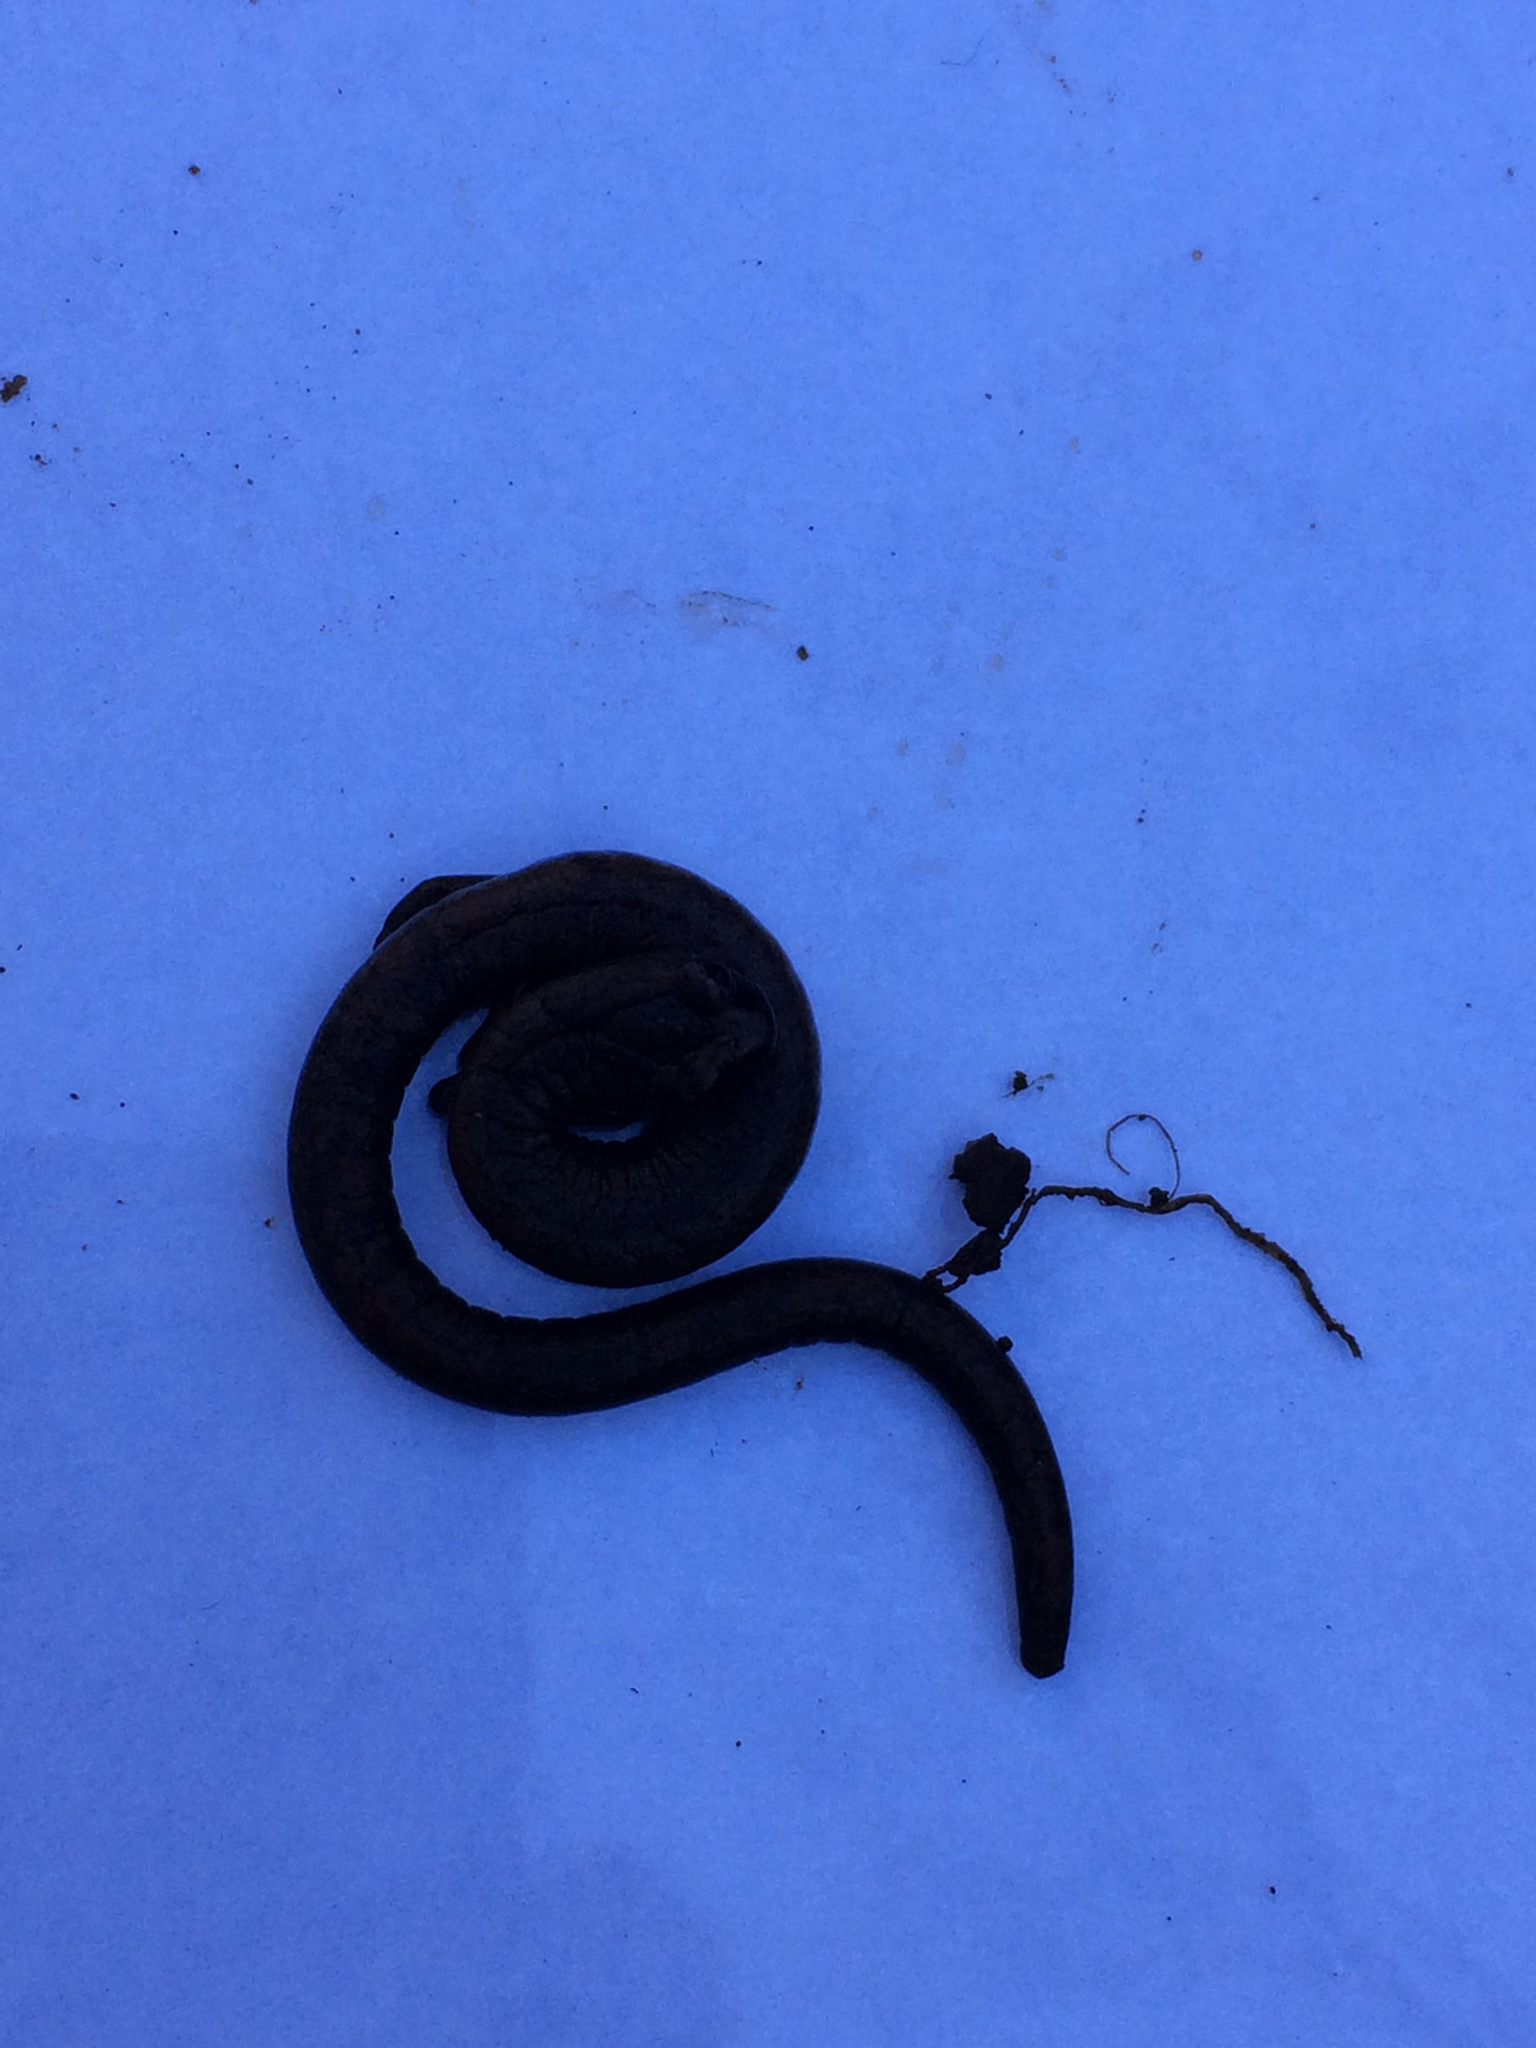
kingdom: Animalia
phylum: Chordata
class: Amphibia
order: Caudata
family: Plethodontidae
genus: Batrachoseps
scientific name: Batrachoseps attenuatus
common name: California slender salamander
